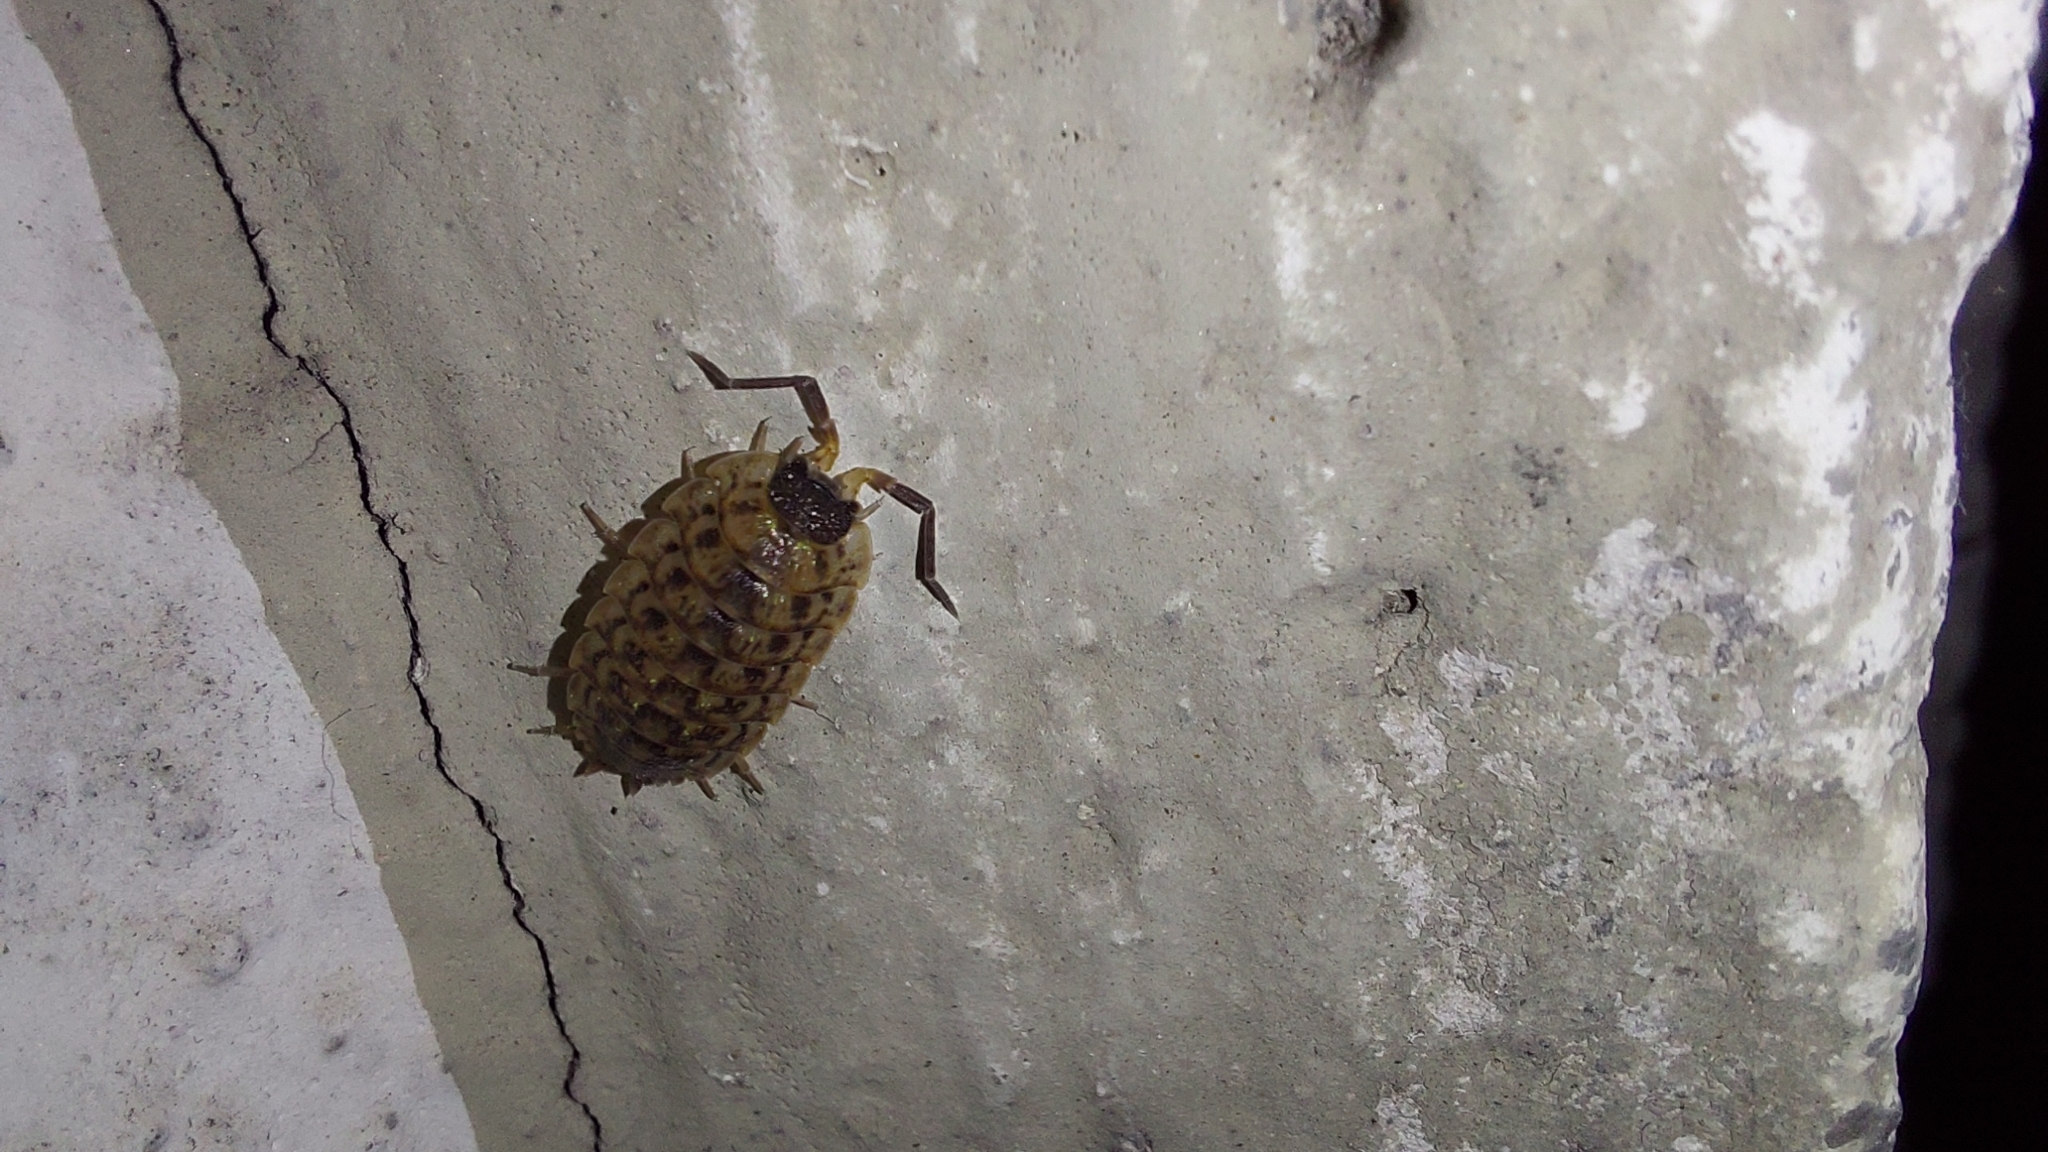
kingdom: Animalia
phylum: Arthropoda
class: Malacostraca
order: Isopoda
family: Porcellionidae
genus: Porcellio
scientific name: Porcellio spinicornis
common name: Painted woodlouse
